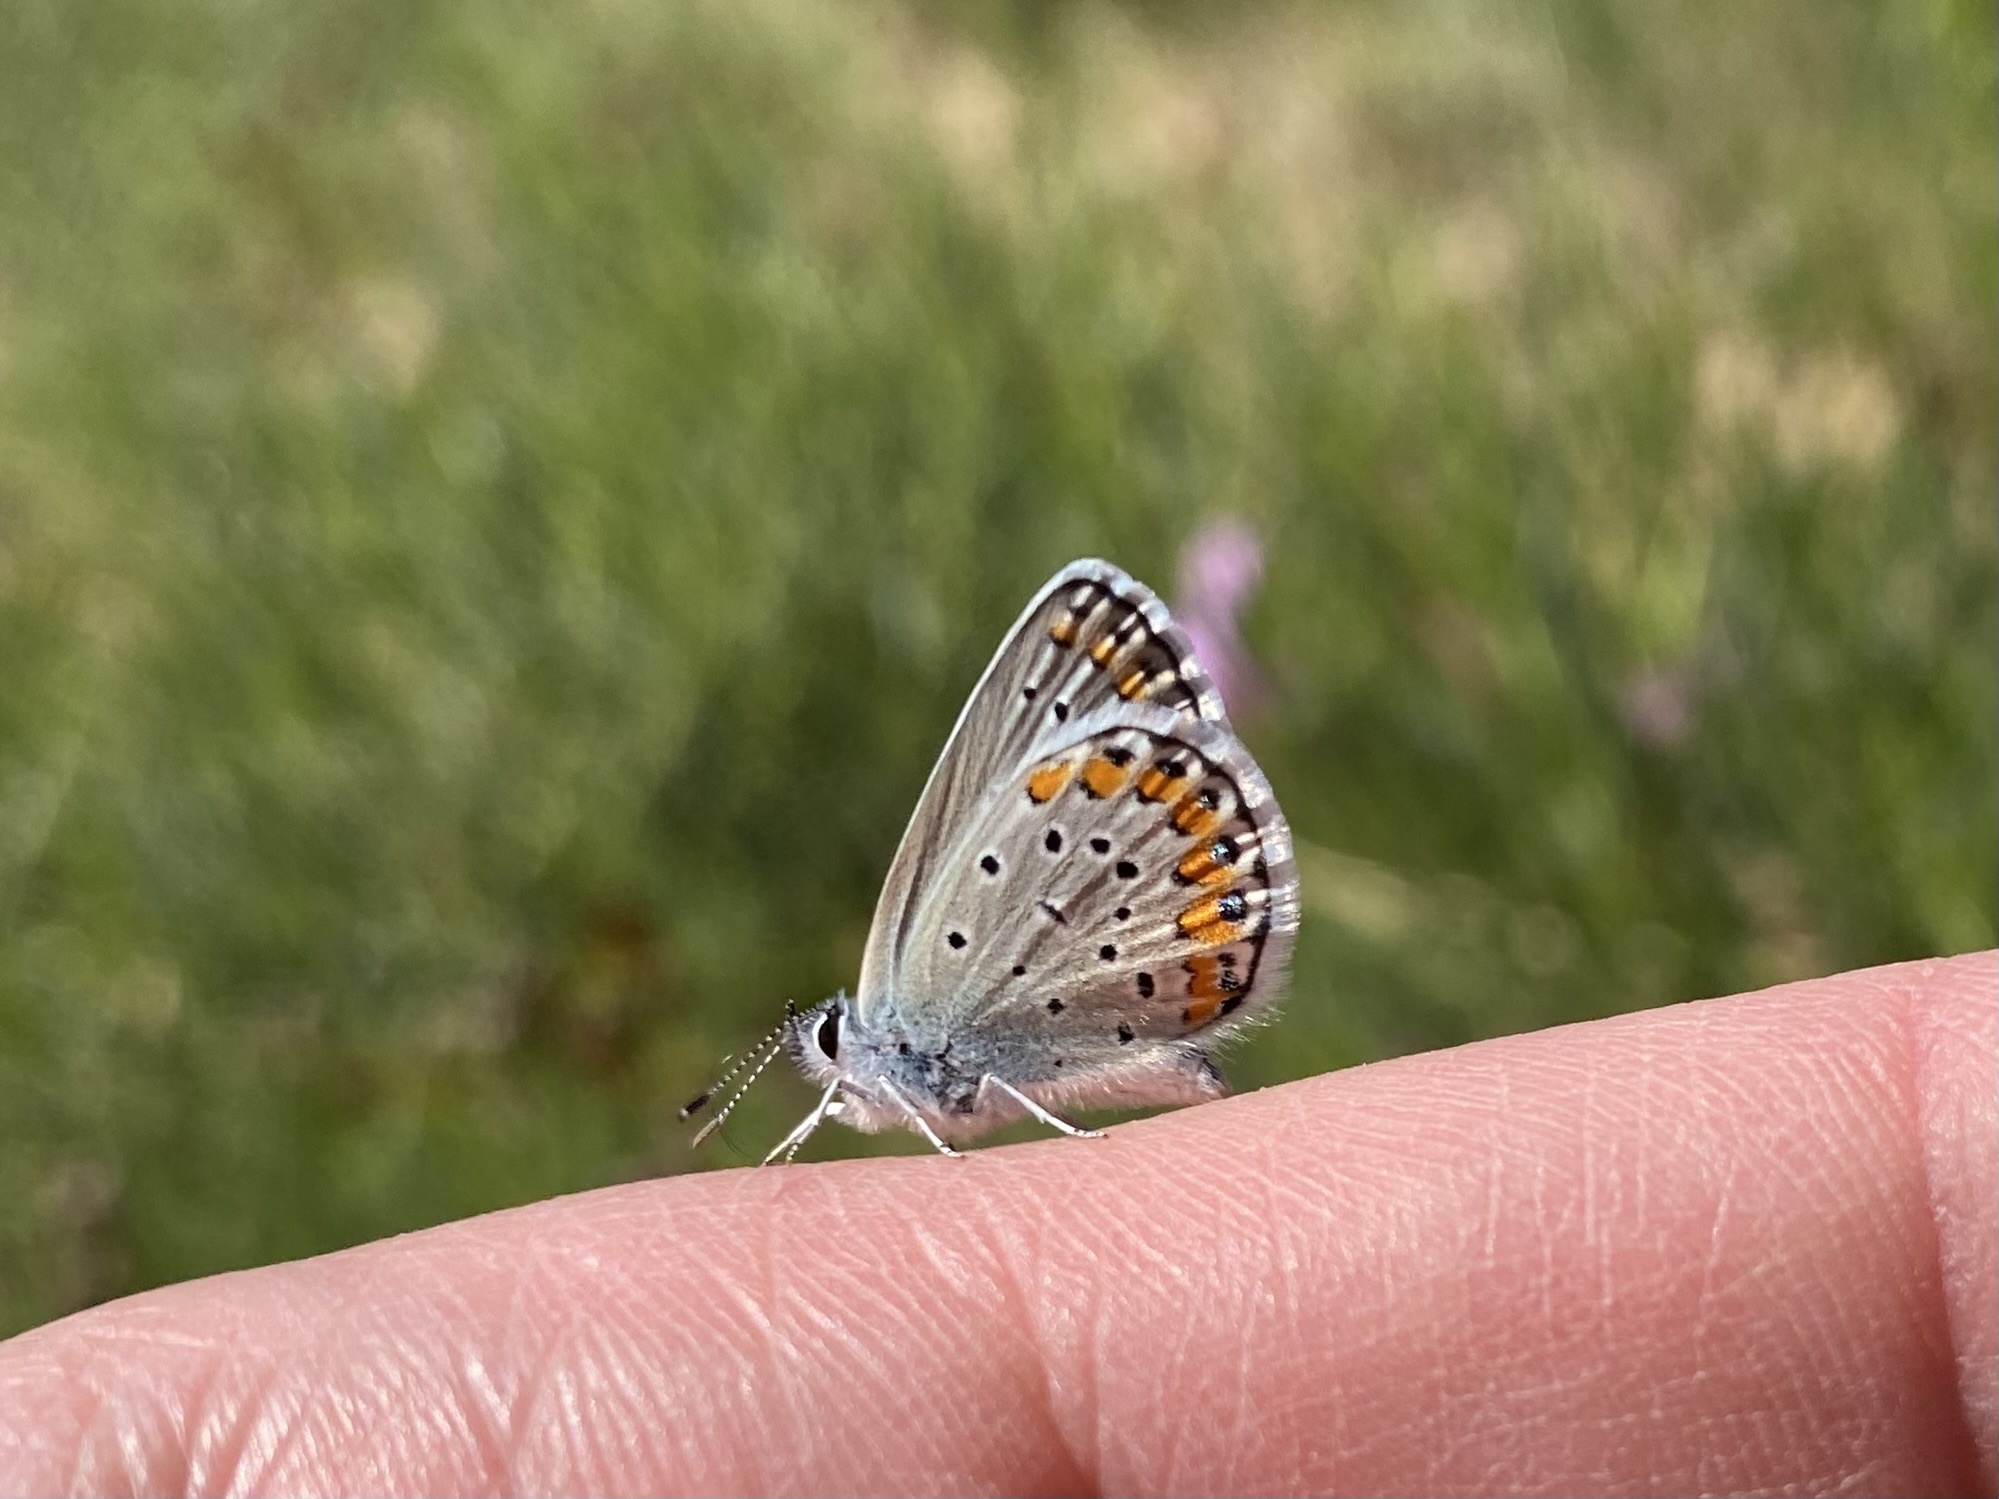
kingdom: Animalia
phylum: Arthropoda
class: Insecta
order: Lepidoptera
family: Lycaenidae
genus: Lycaeides
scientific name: Lycaeides melissa
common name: Melissa blue
